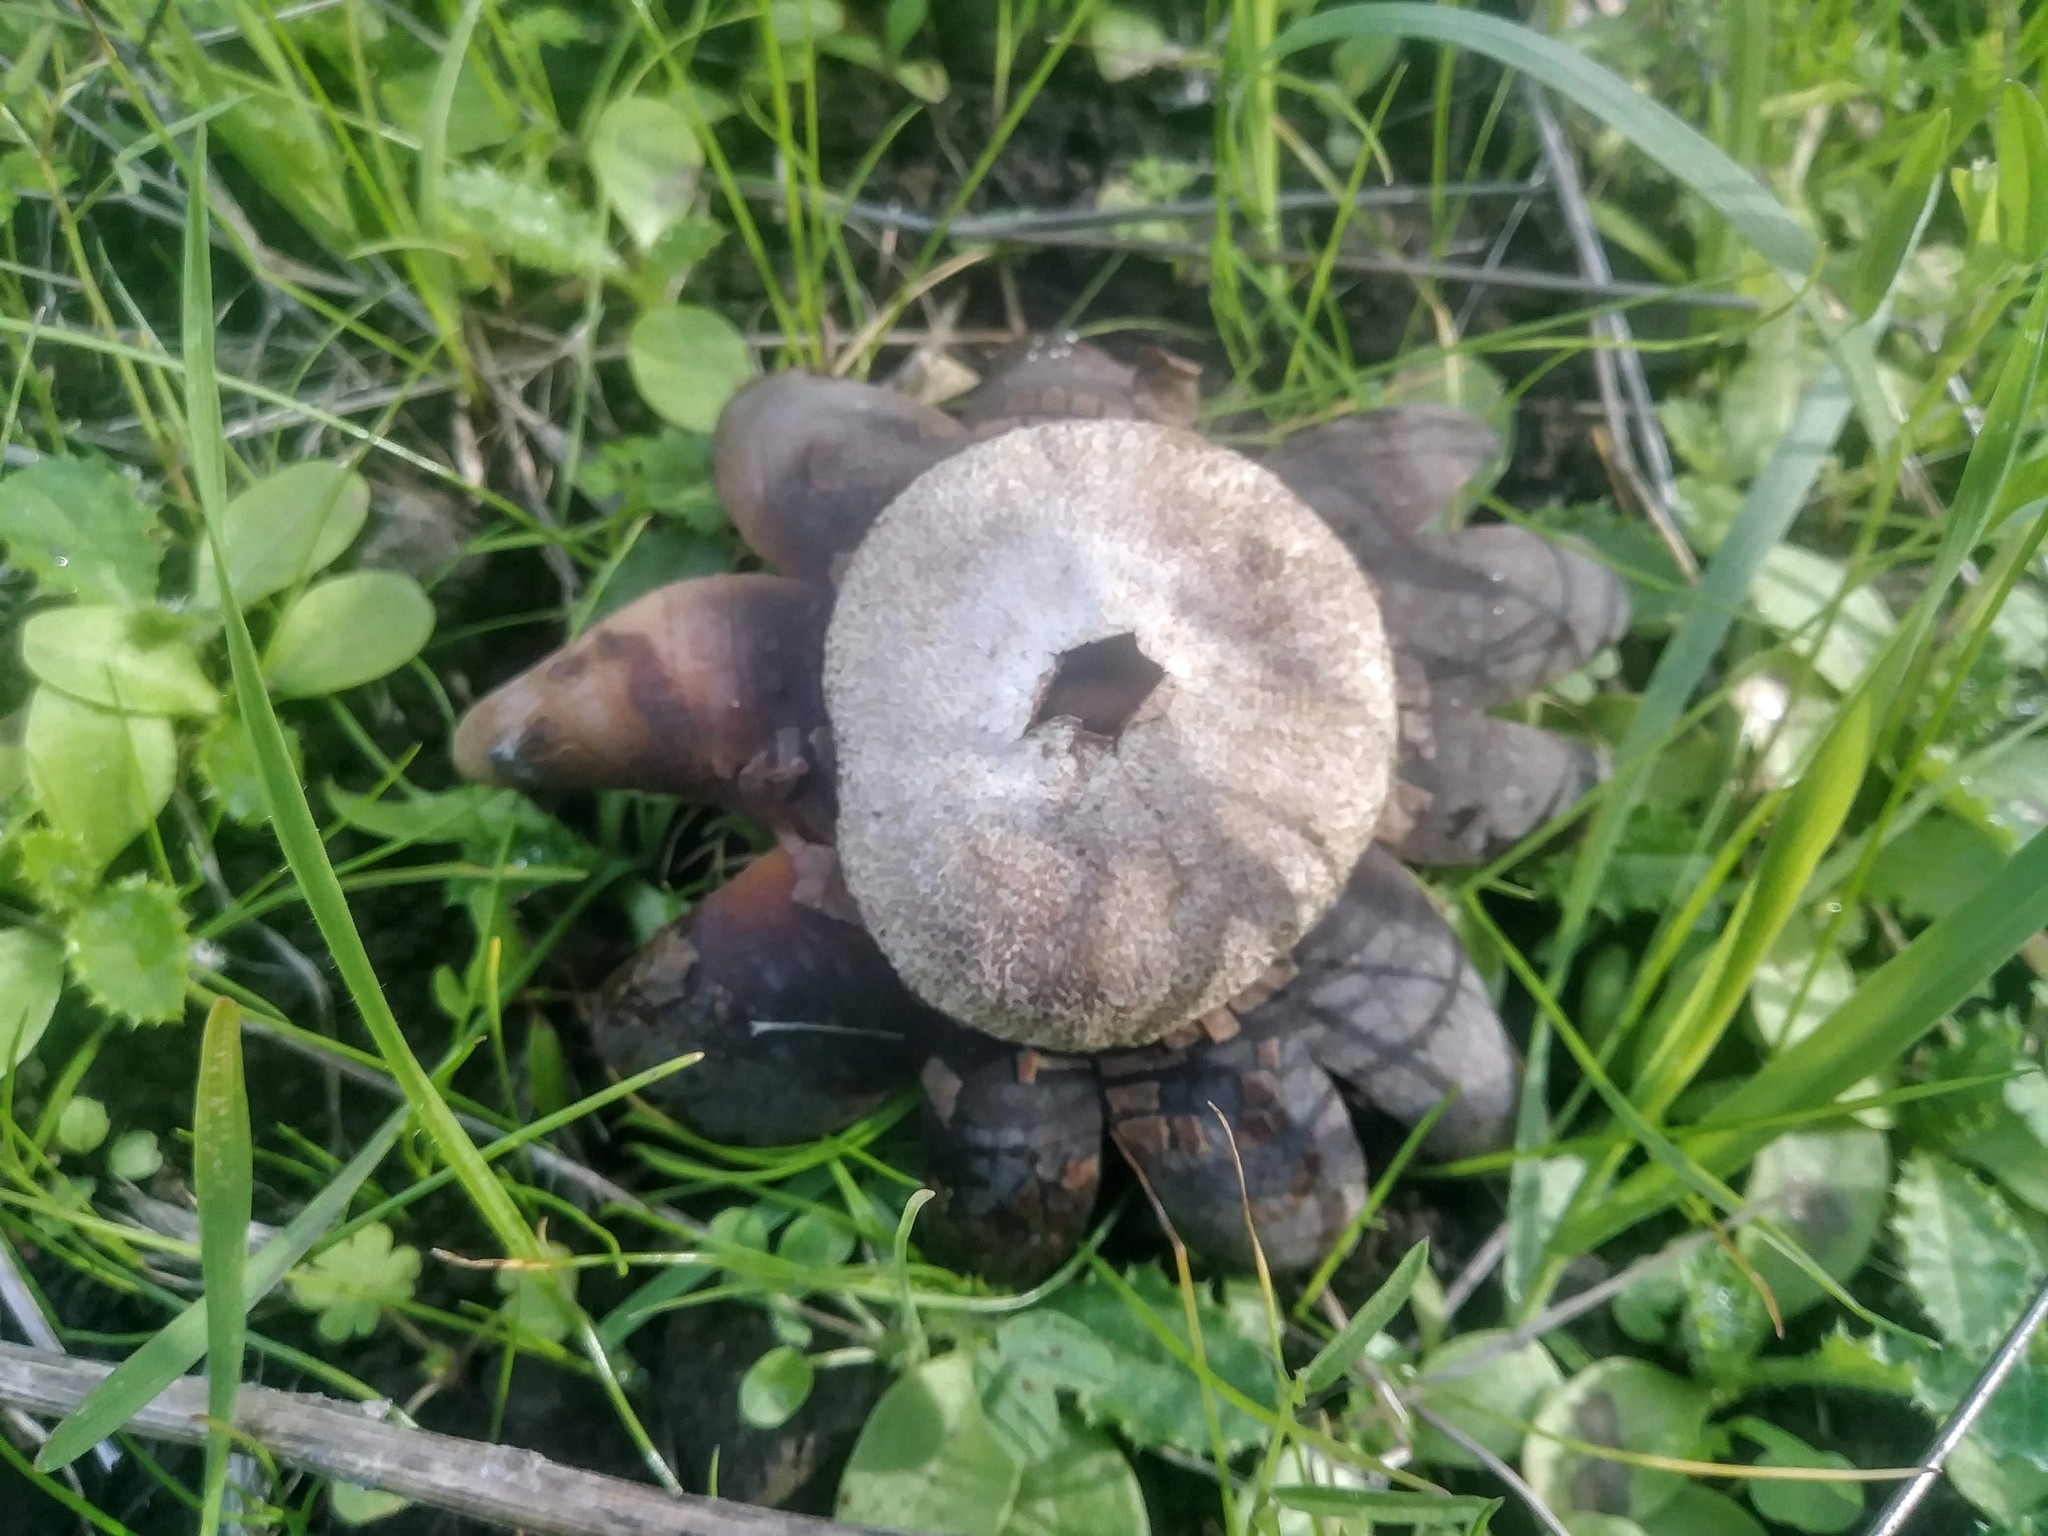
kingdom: Fungi
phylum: Basidiomycota
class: Agaricomycetes
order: Boletales
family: Diplocystidiaceae
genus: Astraeus
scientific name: Astraeus pteridis
